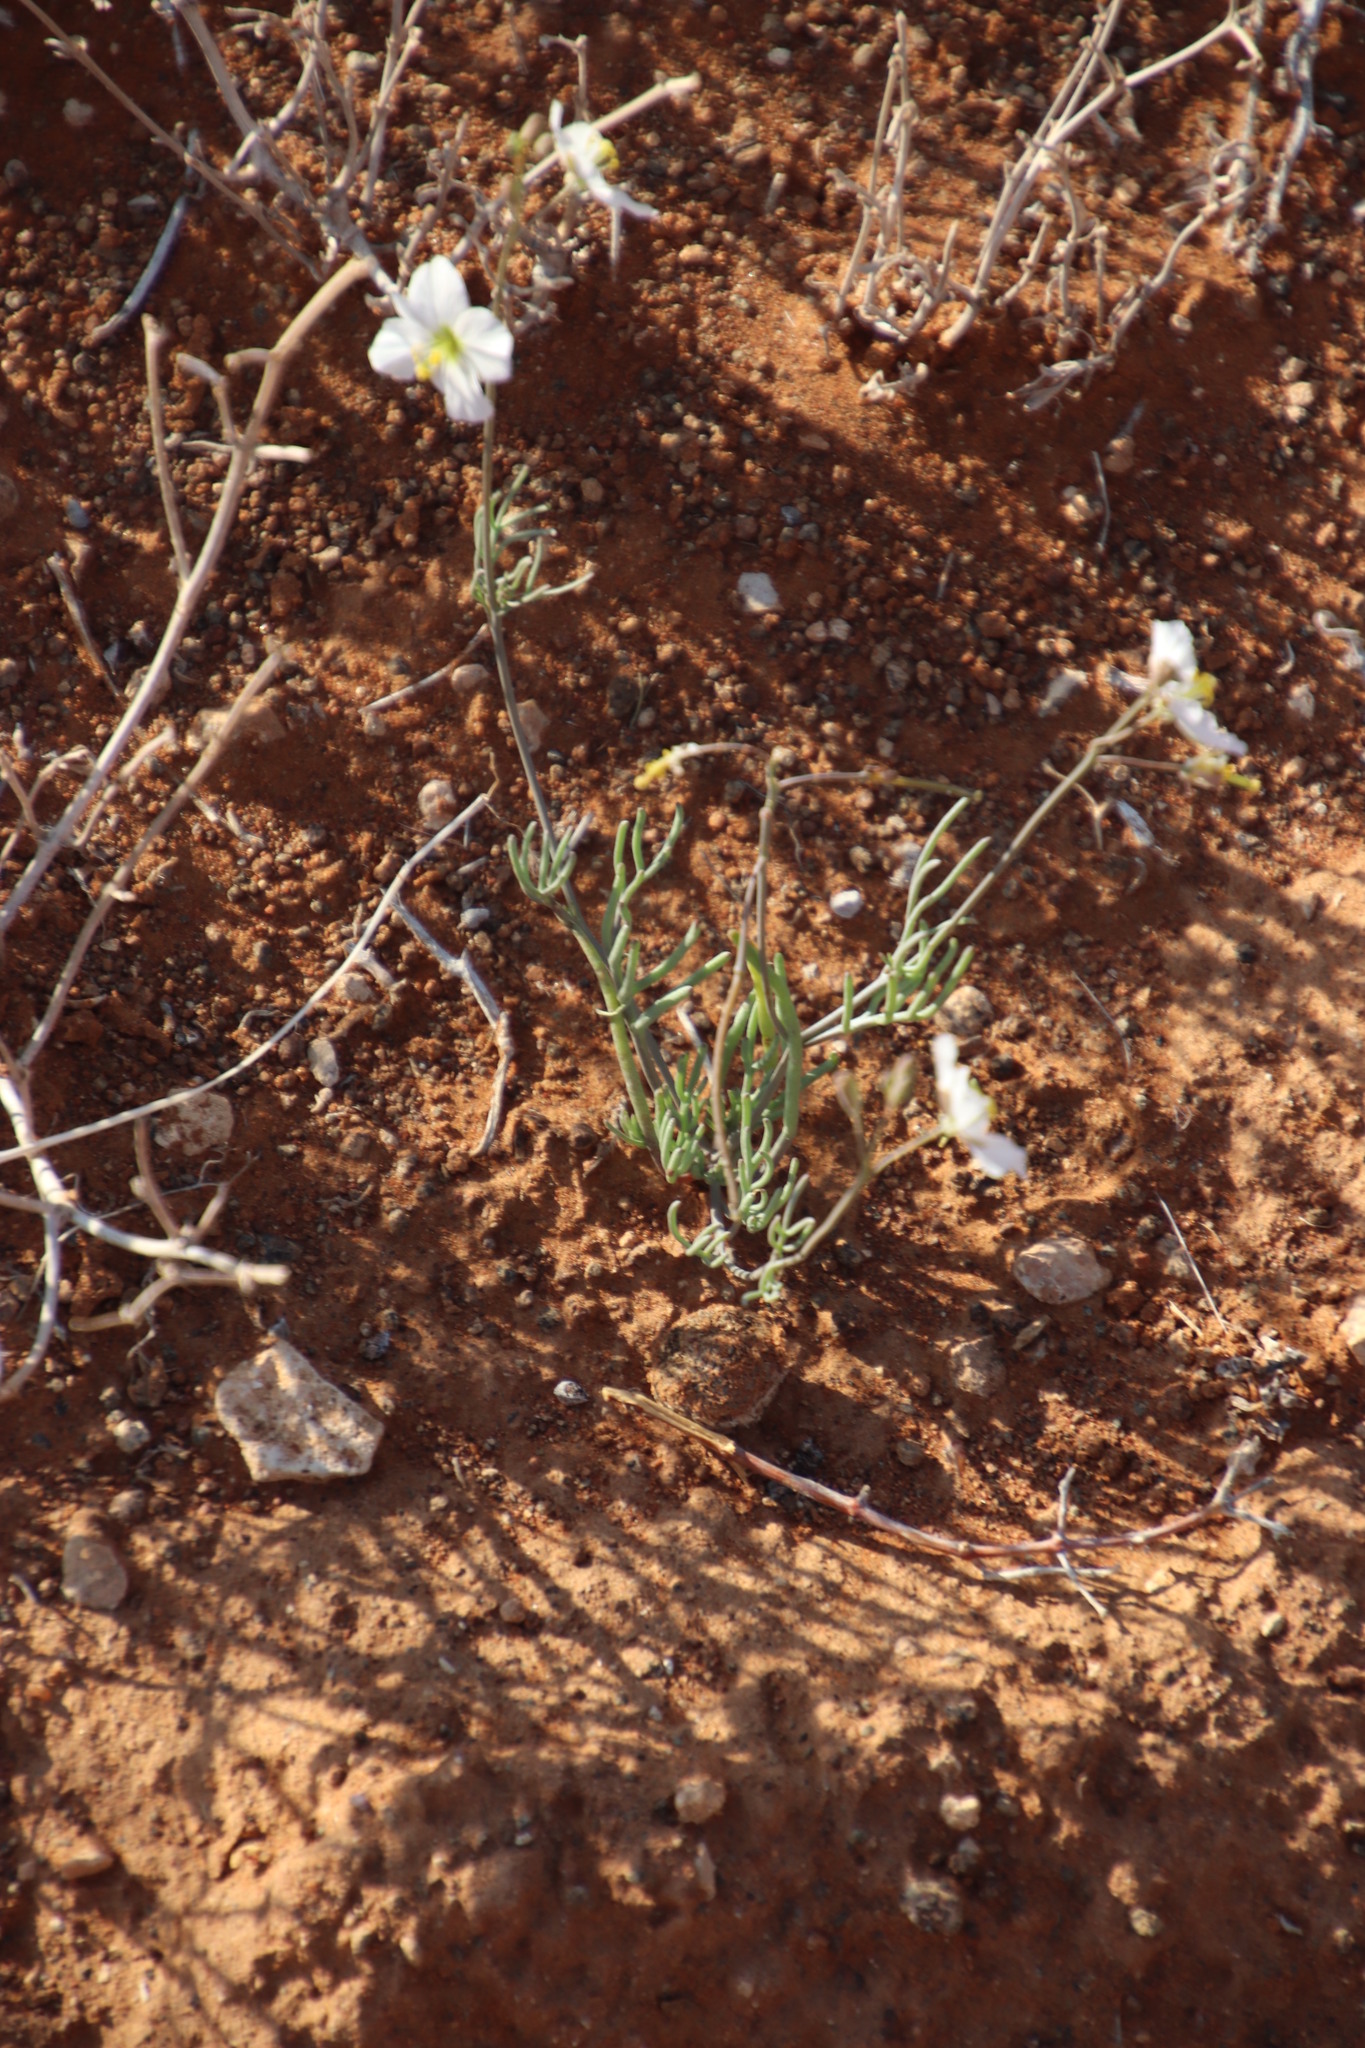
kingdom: Plantae
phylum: Tracheophyta
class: Magnoliopsida
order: Brassicales
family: Brassicaceae
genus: Heliophila
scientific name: Heliophila seselifolia
